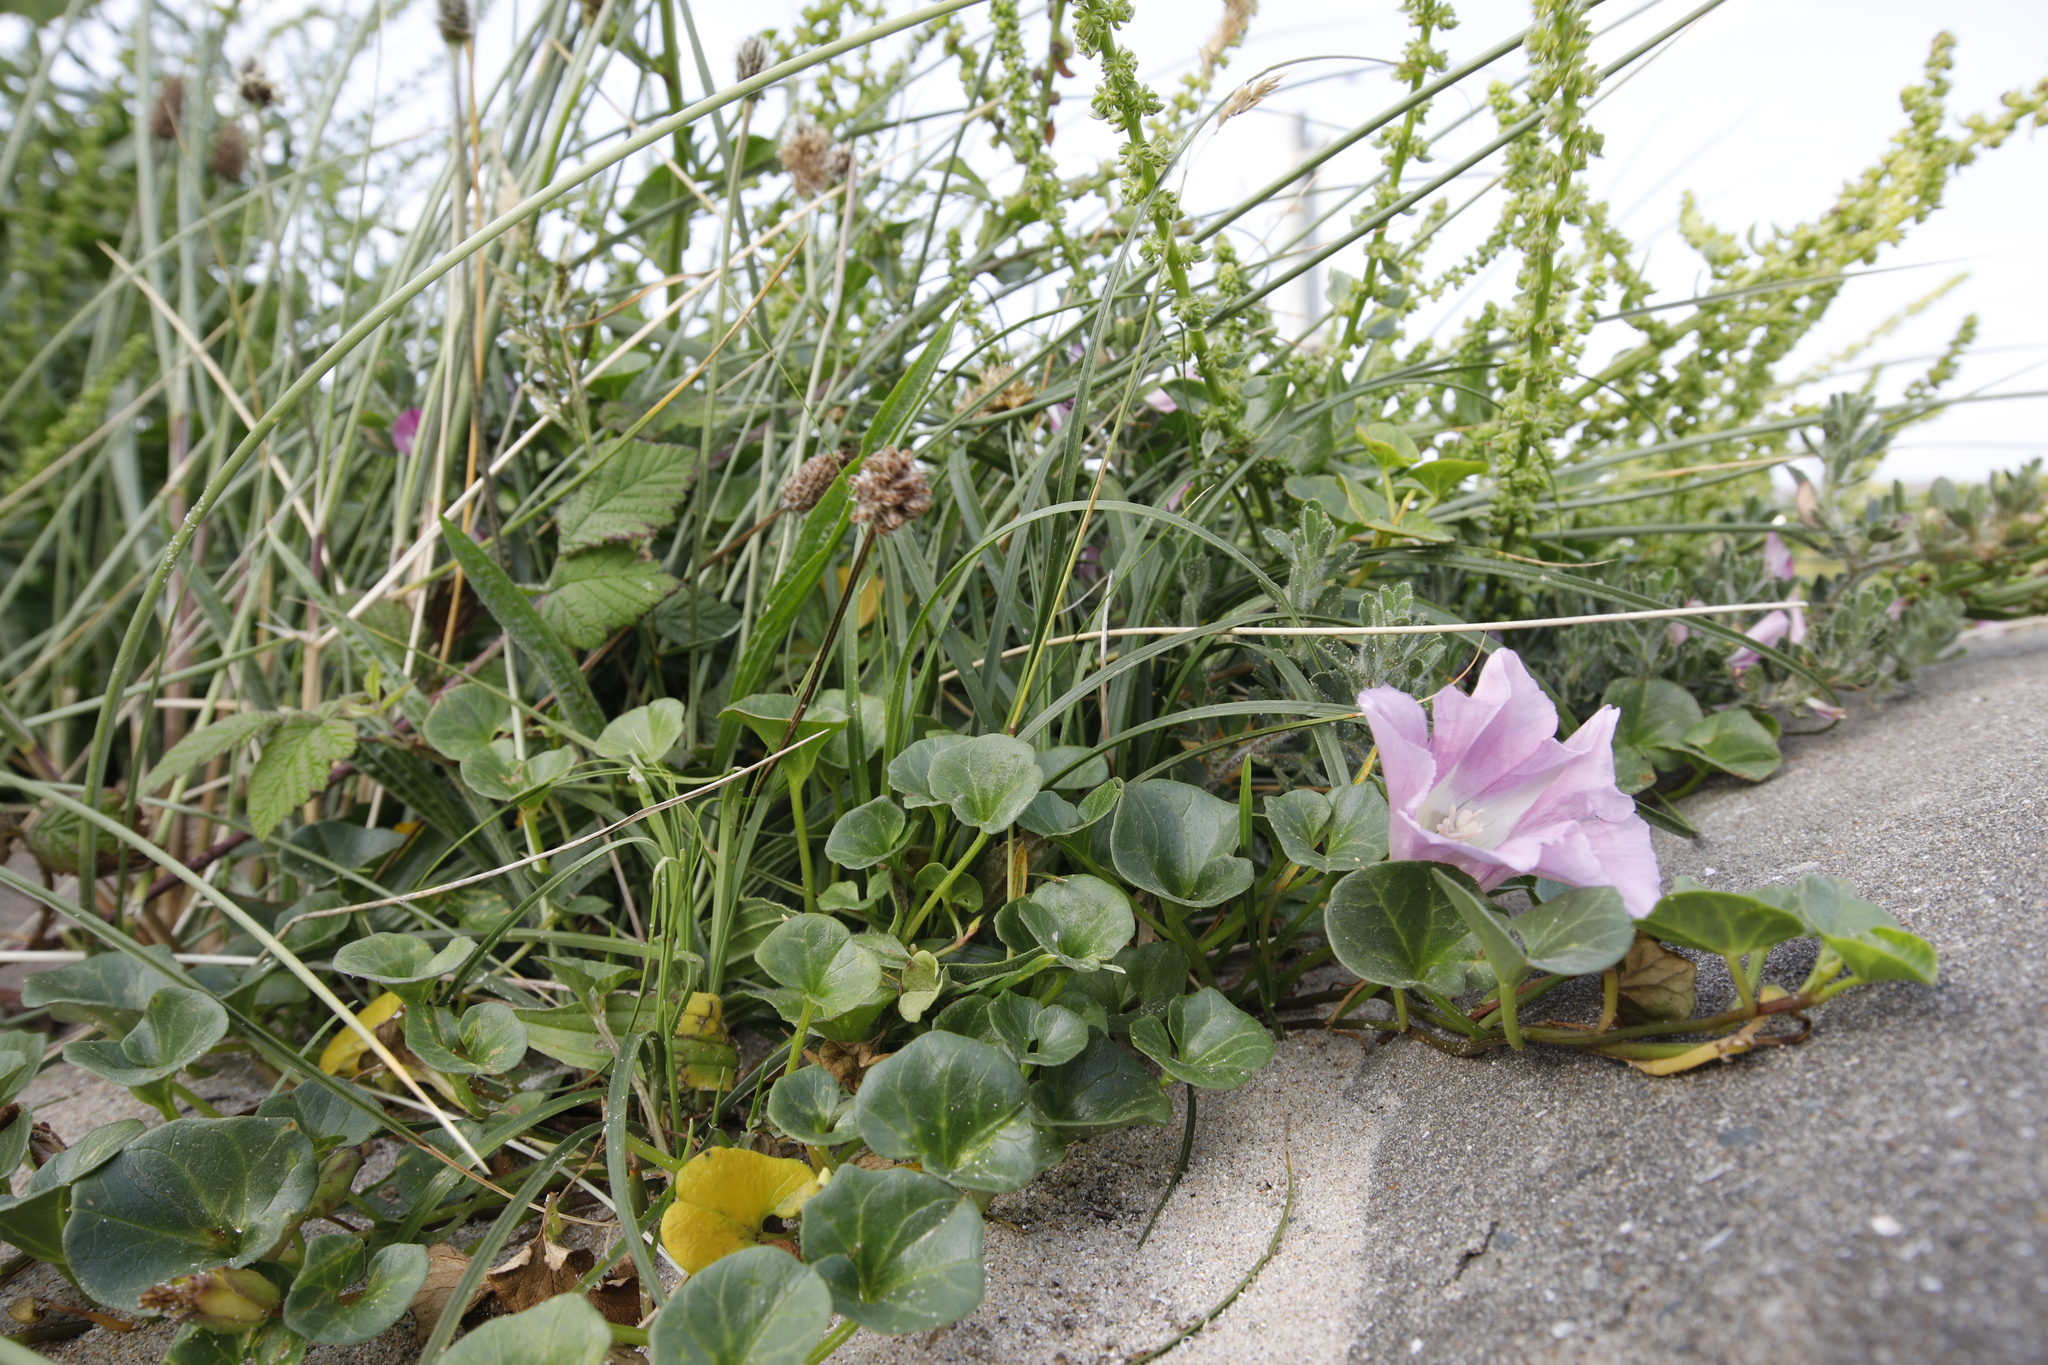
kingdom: Plantae
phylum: Tracheophyta
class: Magnoliopsida
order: Solanales
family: Convolvulaceae
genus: Calystegia
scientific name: Calystegia soldanella
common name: Sea bindweed
